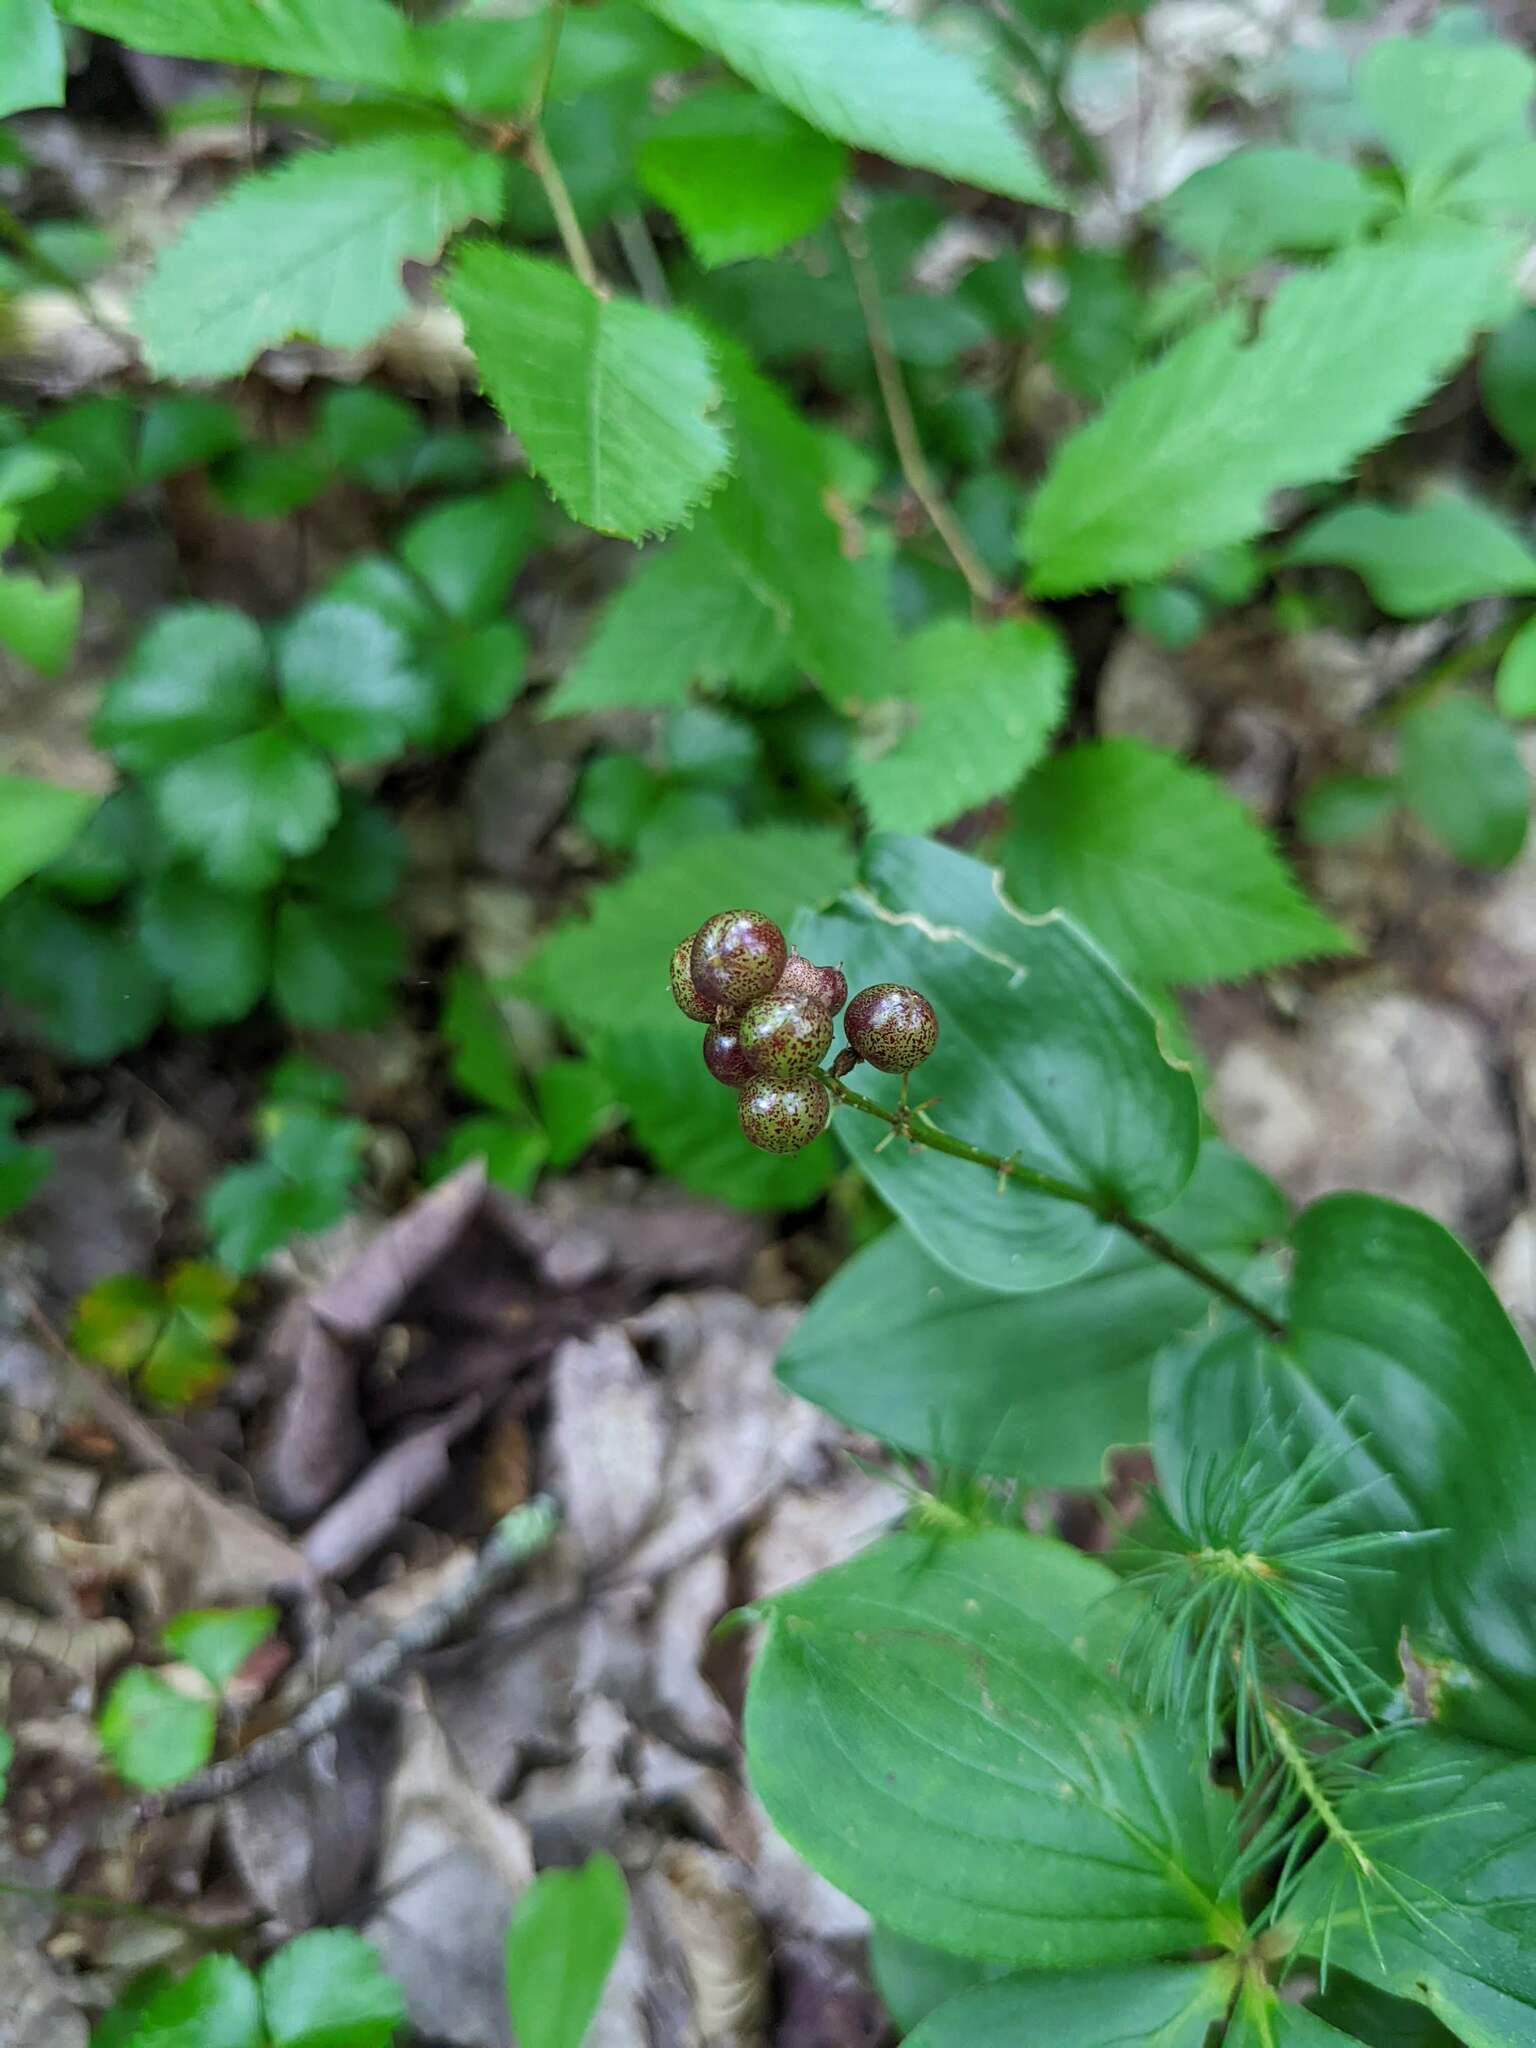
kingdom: Plantae
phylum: Tracheophyta
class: Liliopsida
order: Asparagales
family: Asparagaceae
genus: Maianthemum
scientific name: Maianthemum canadense
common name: False lily-of-the-valley
